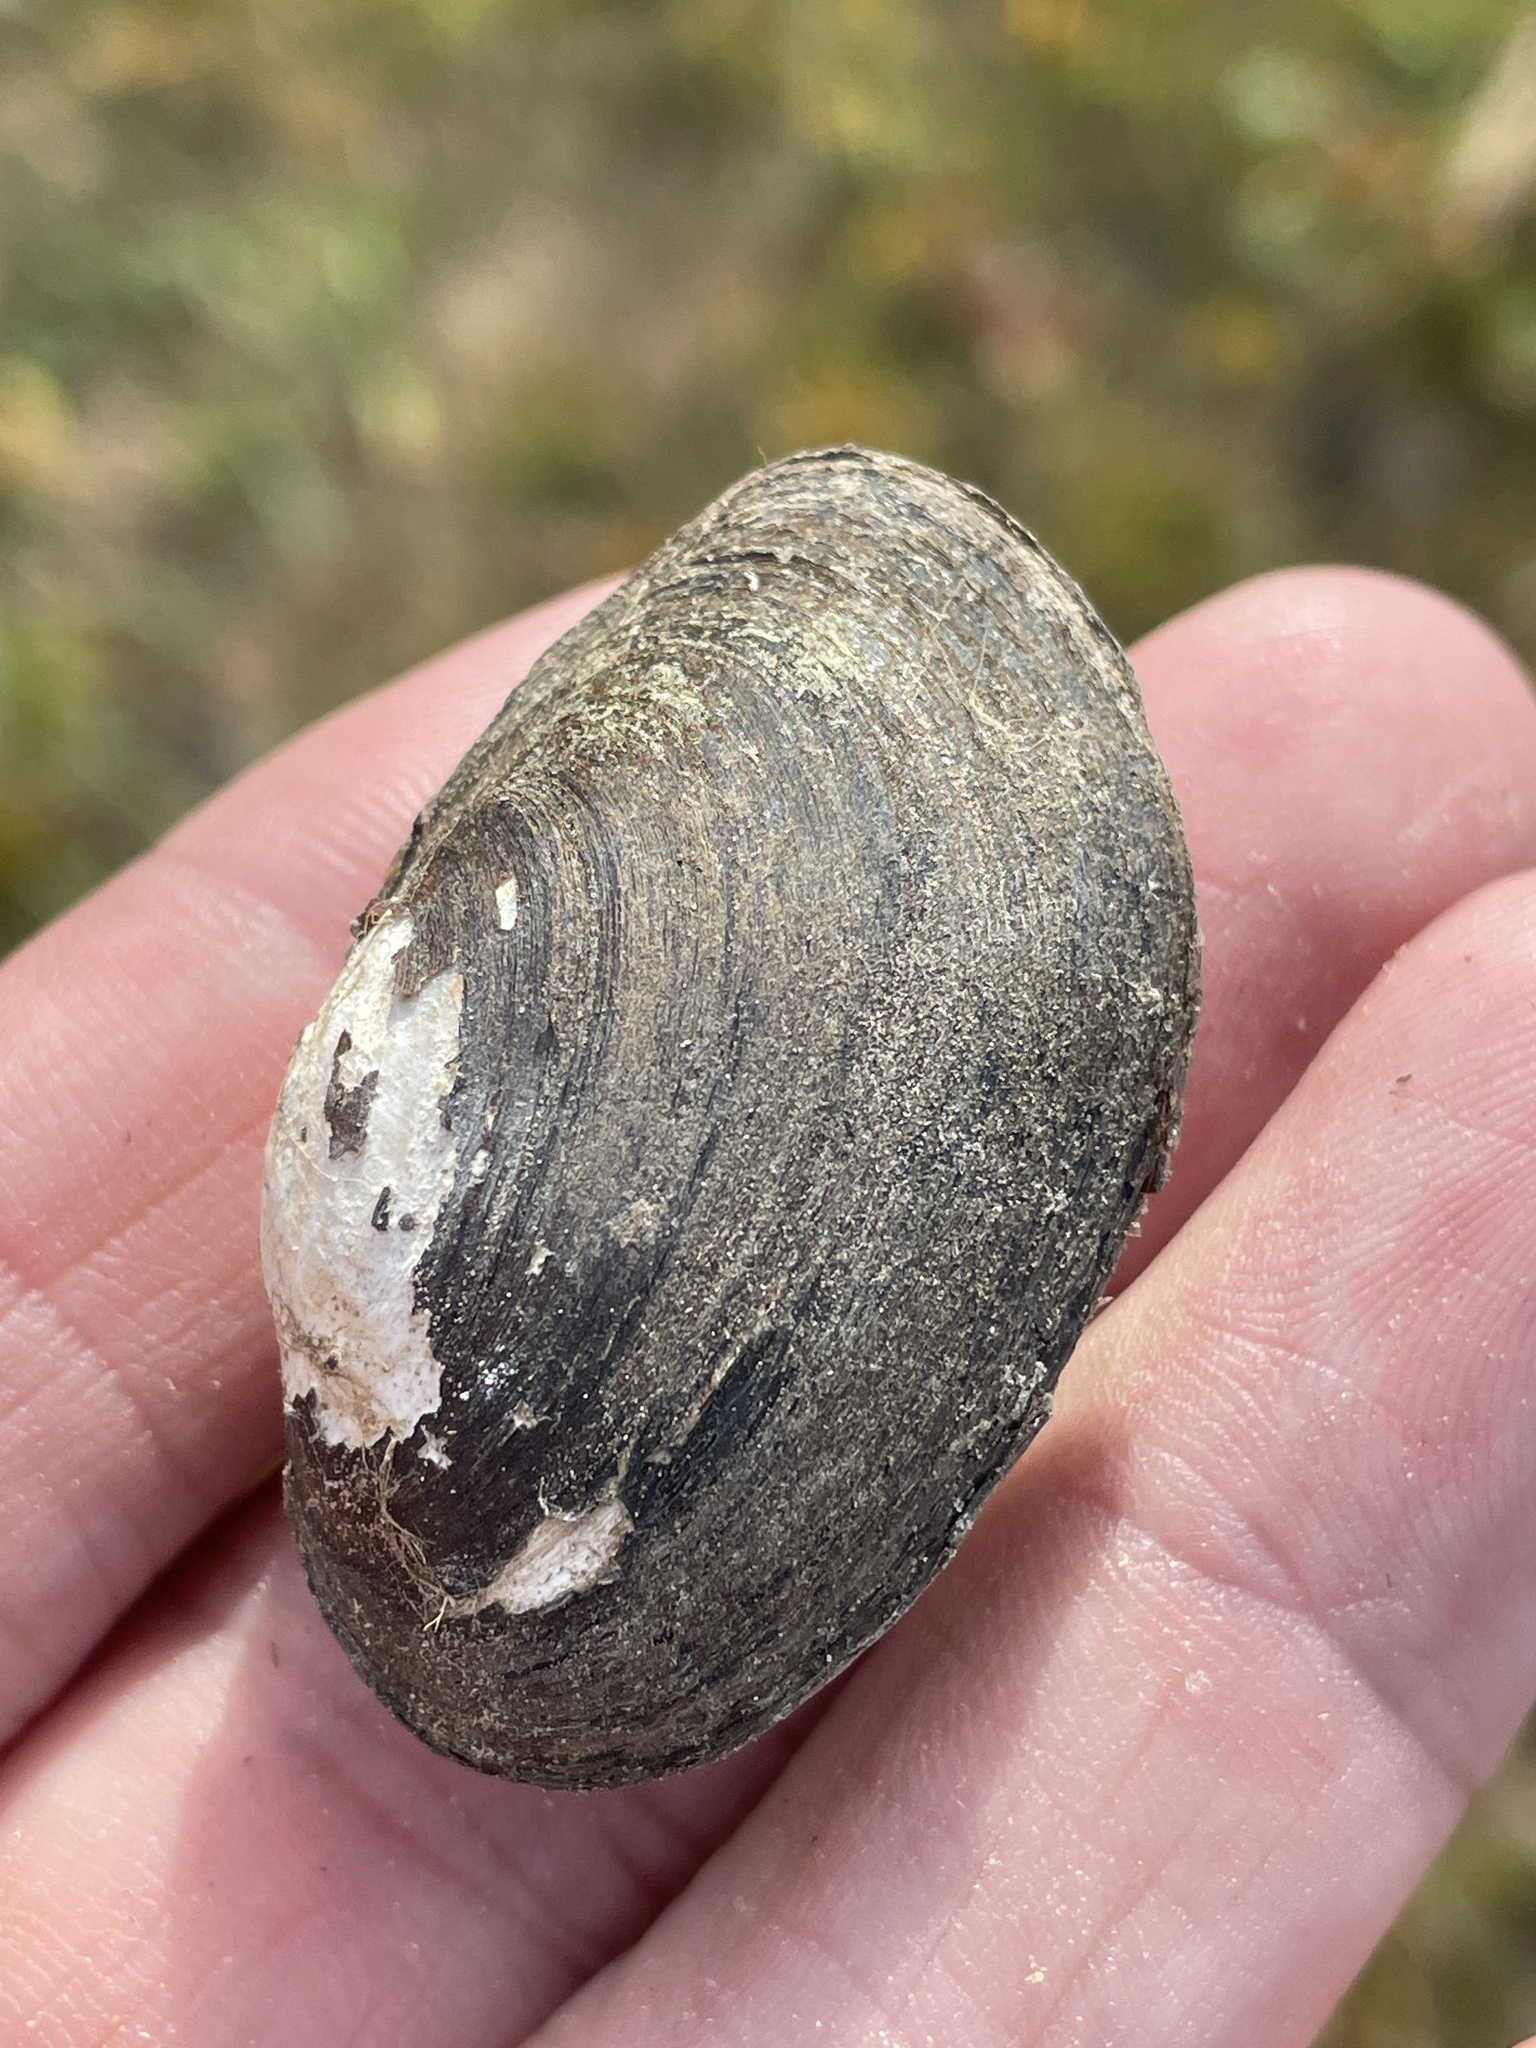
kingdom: Animalia
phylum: Mollusca
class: Bivalvia
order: Unionida
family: Unionidae
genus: Toxolasma
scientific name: Toxolasma texasiense
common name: Texas lilliput
